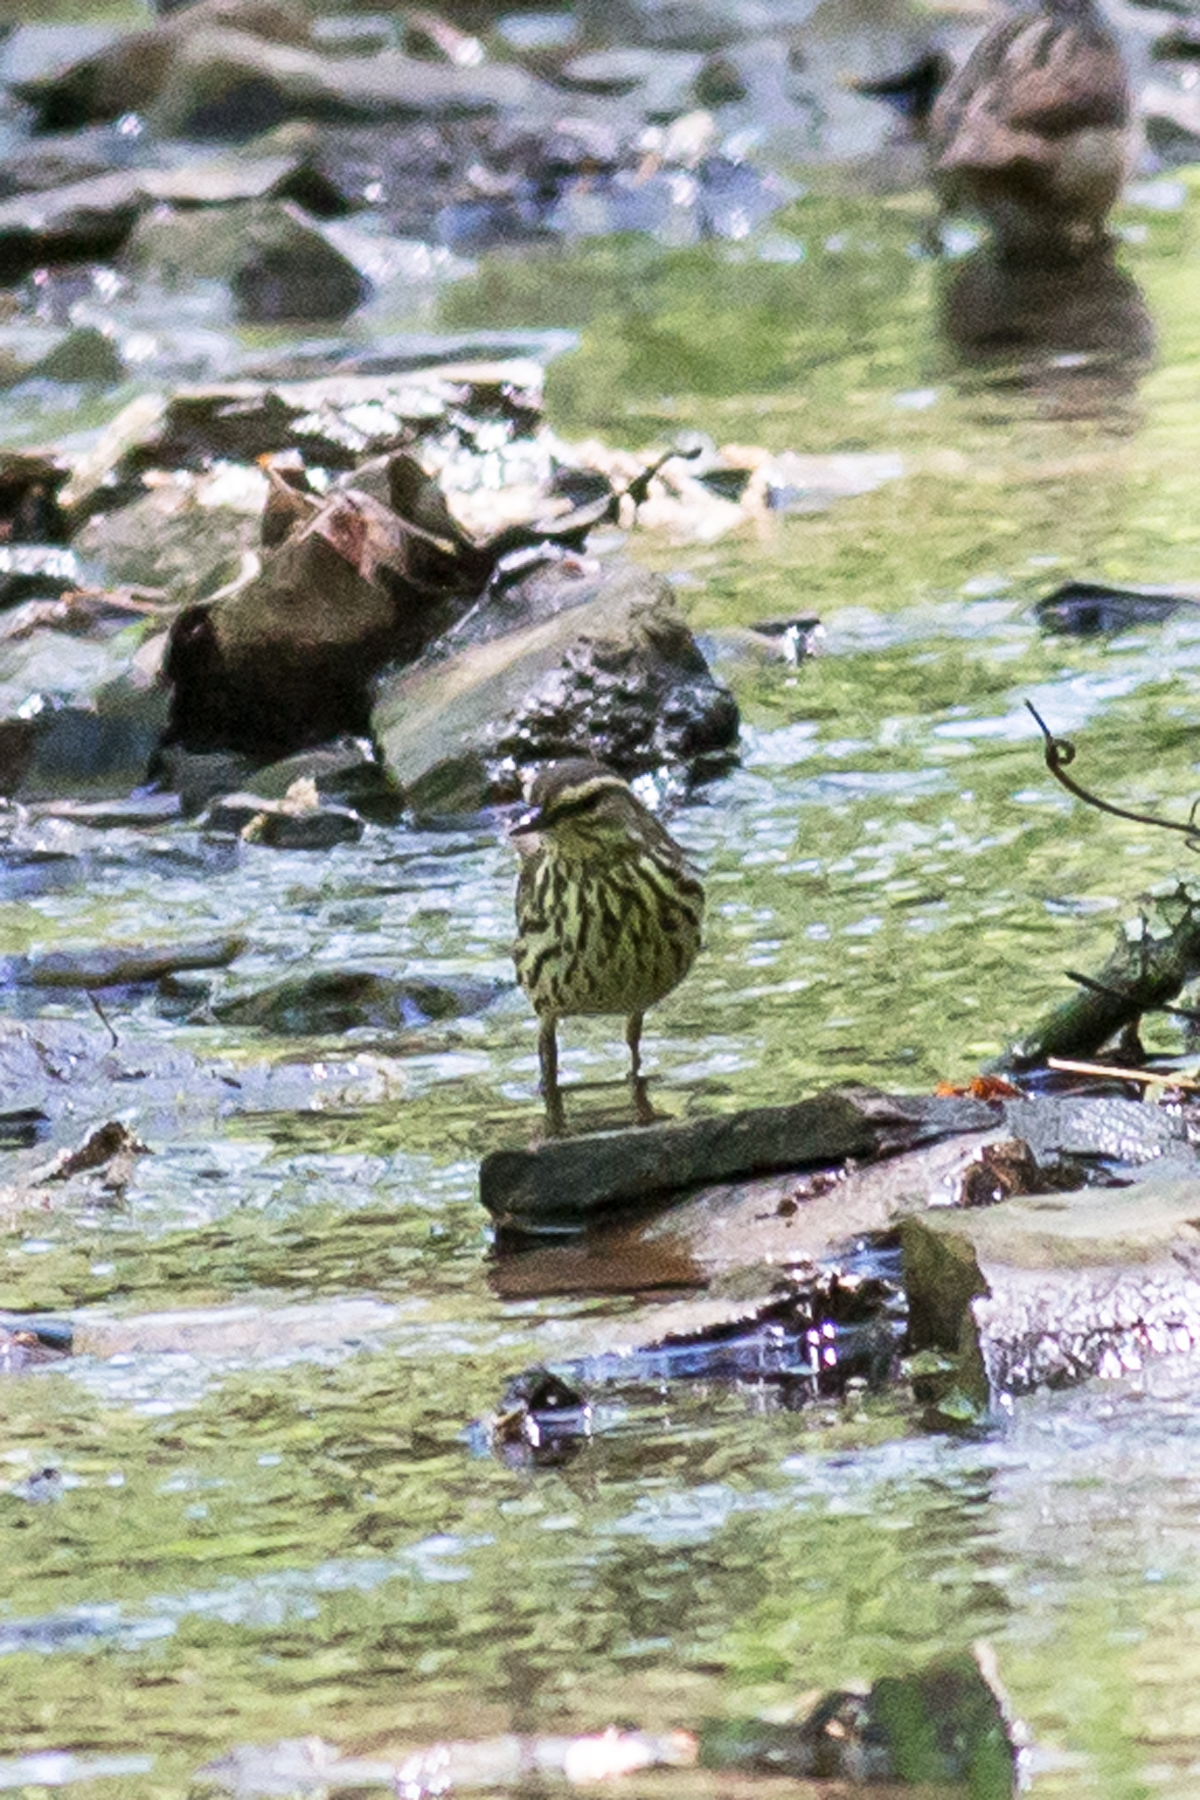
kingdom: Animalia
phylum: Chordata
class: Aves
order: Passeriformes
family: Parulidae
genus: Parkesia
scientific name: Parkesia noveboracensis
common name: Northern waterthrush
